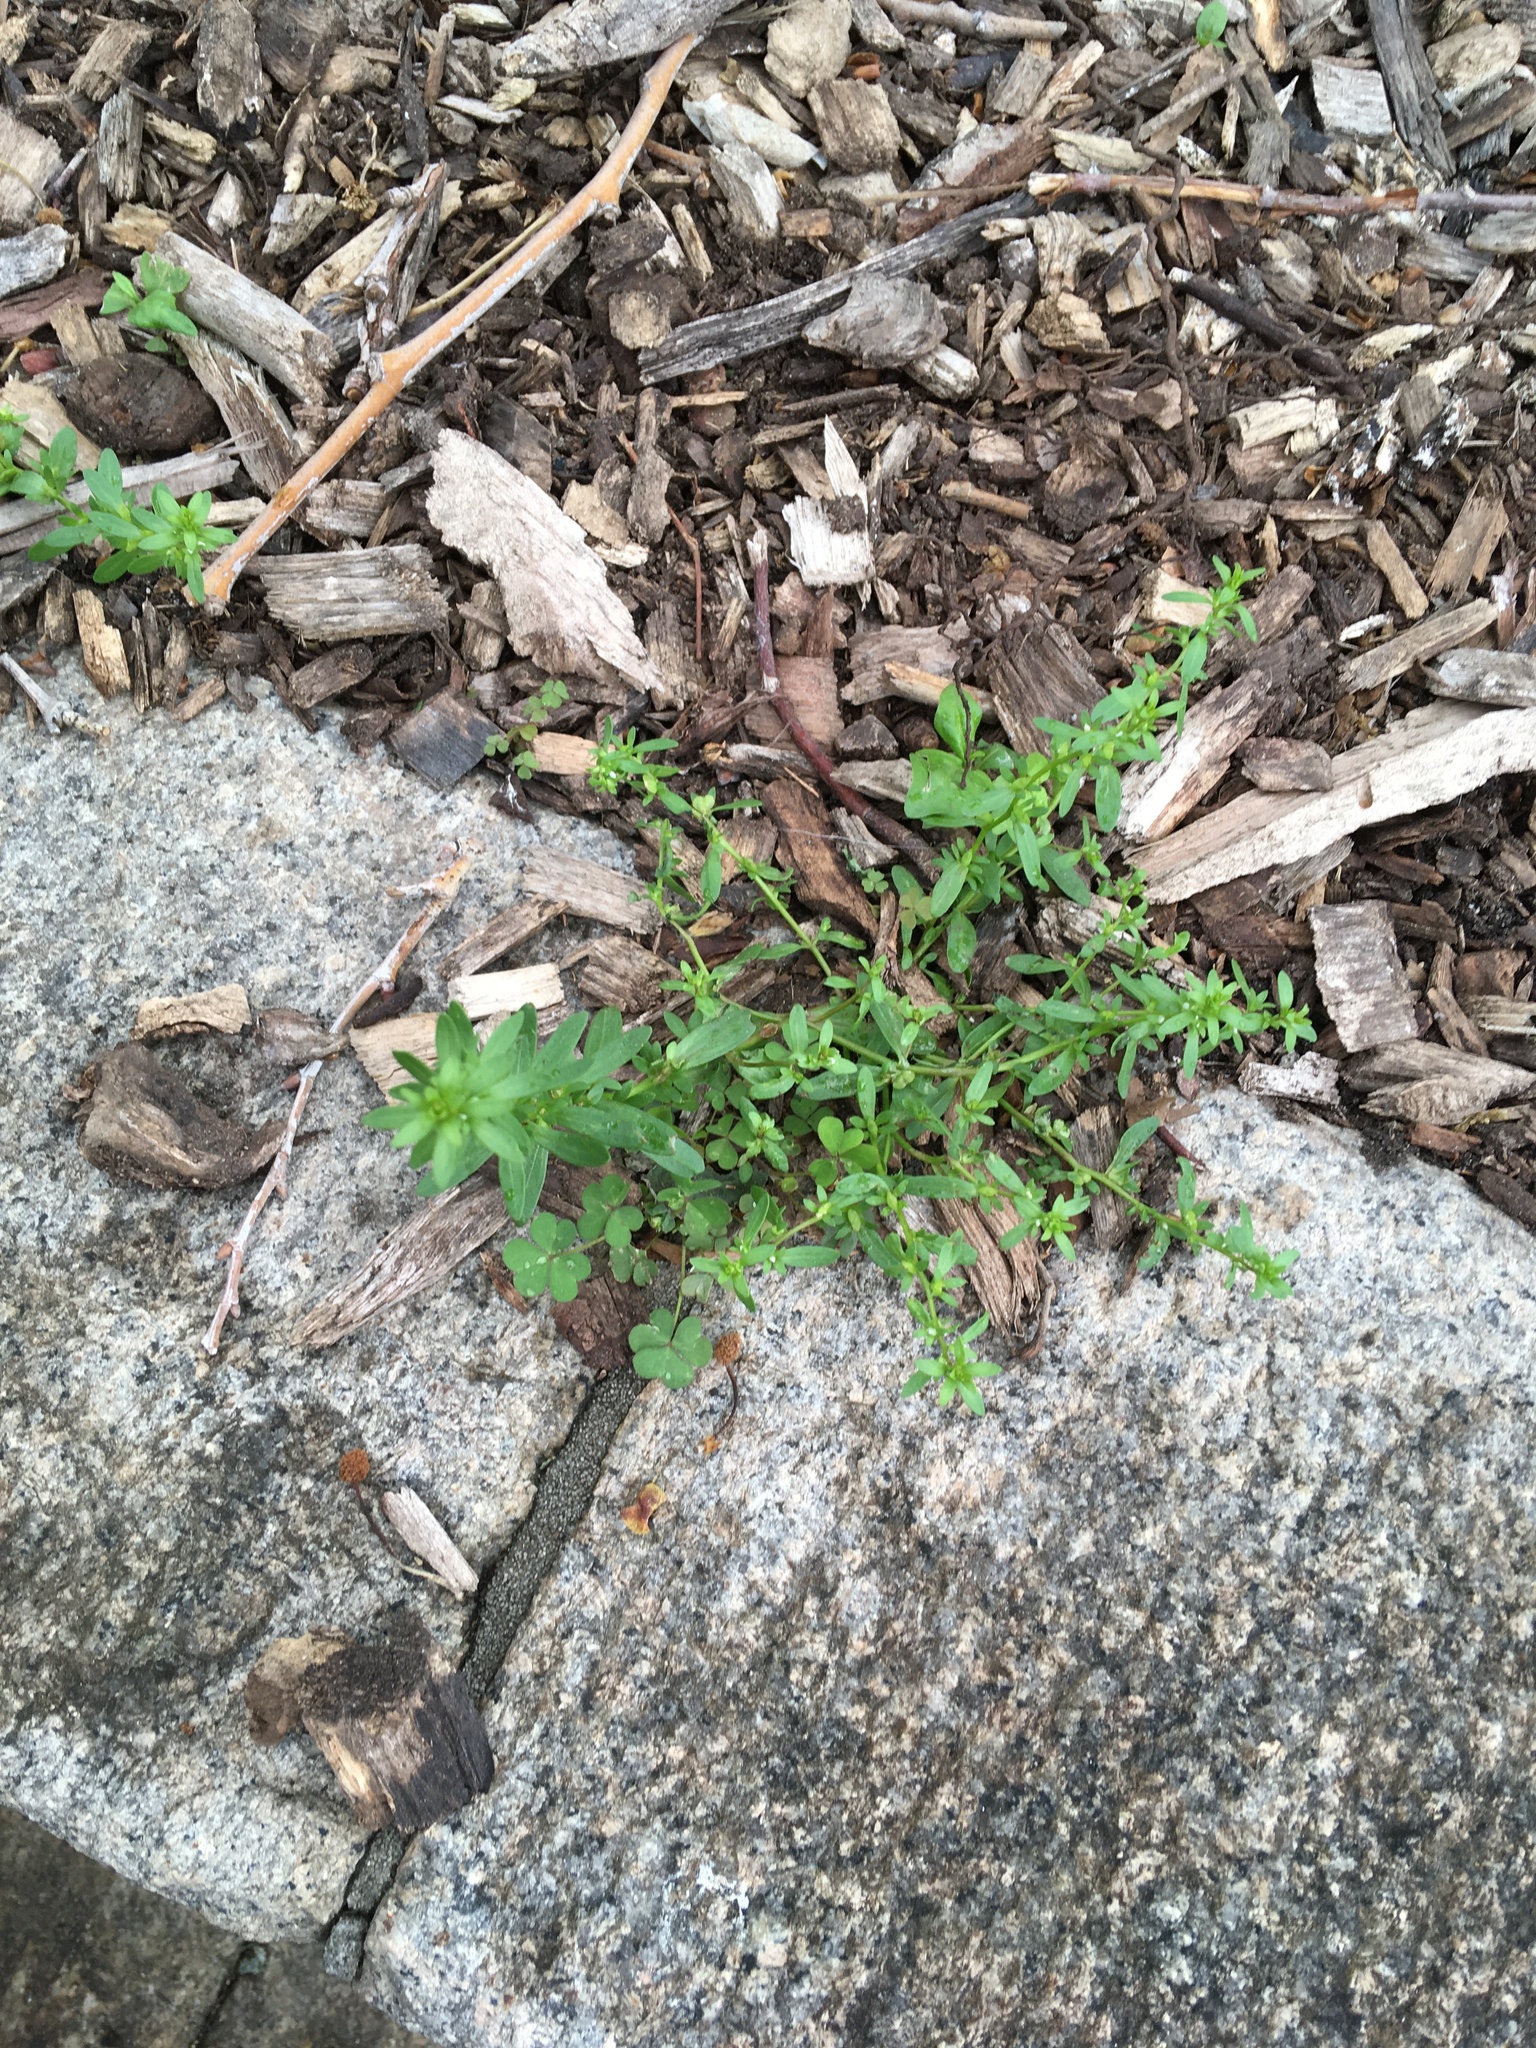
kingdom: Plantae
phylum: Tracheophyta
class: Magnoliopsida
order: Lamiales
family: Plantaginaceae
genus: Veronica
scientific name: Veronica peregrina
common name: Neckweed
